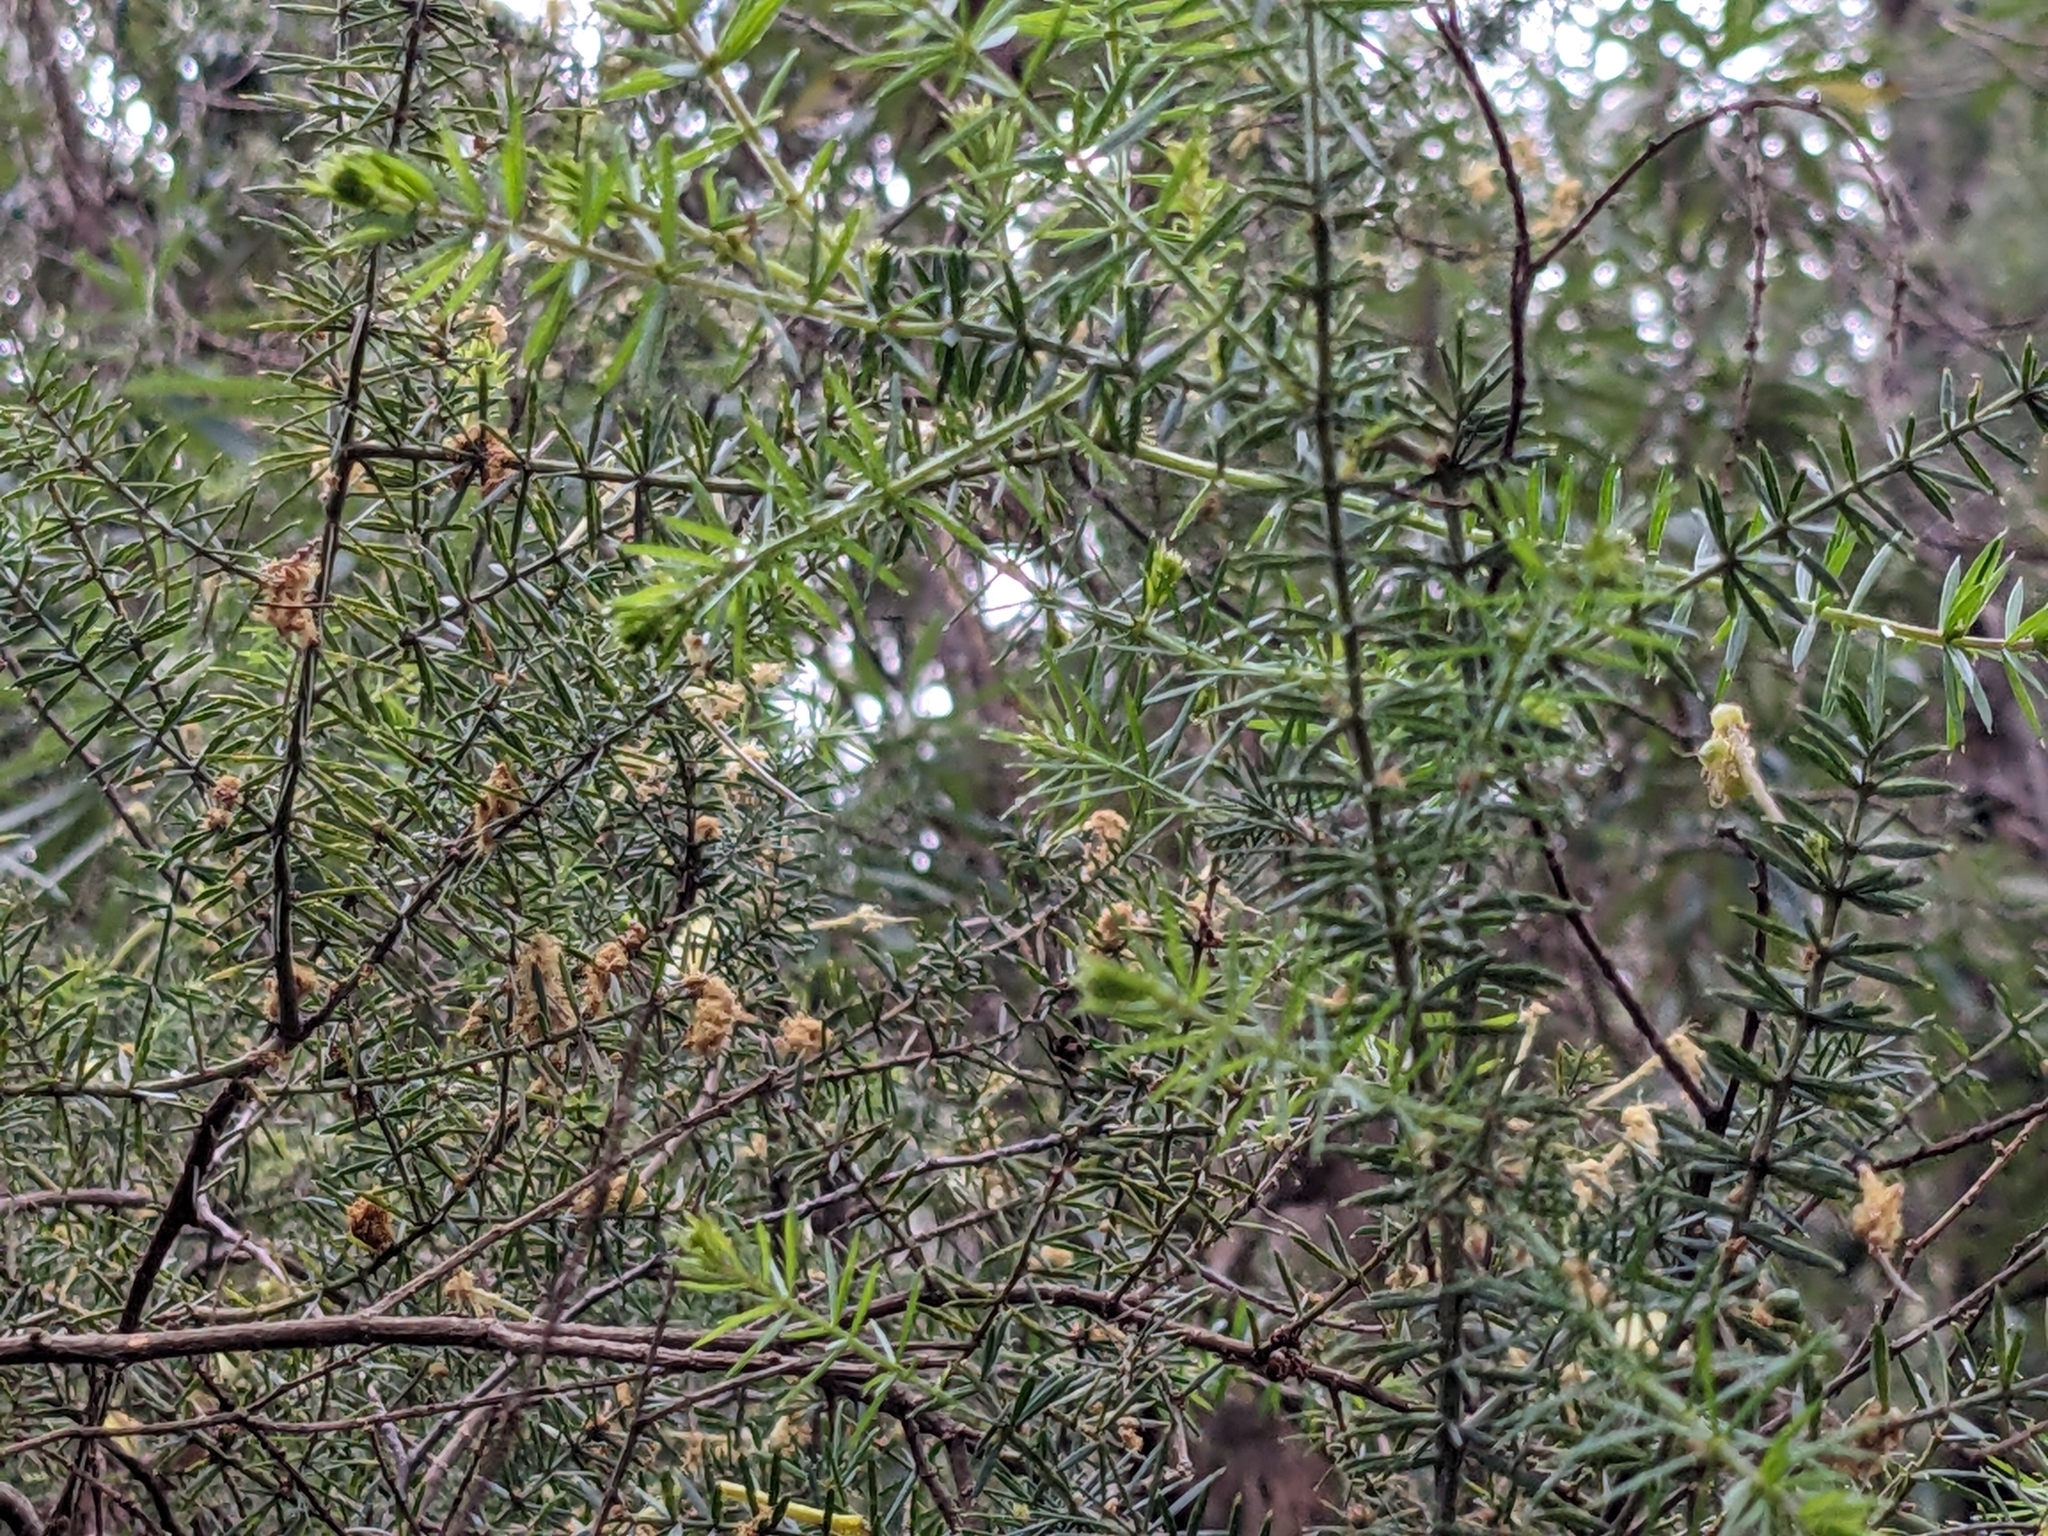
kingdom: Plantae
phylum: Tracheophyta
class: Magnoliopsida
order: Fabales
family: Fabaceae
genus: Acacia
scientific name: Acacia verticillata
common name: Prickly moses
